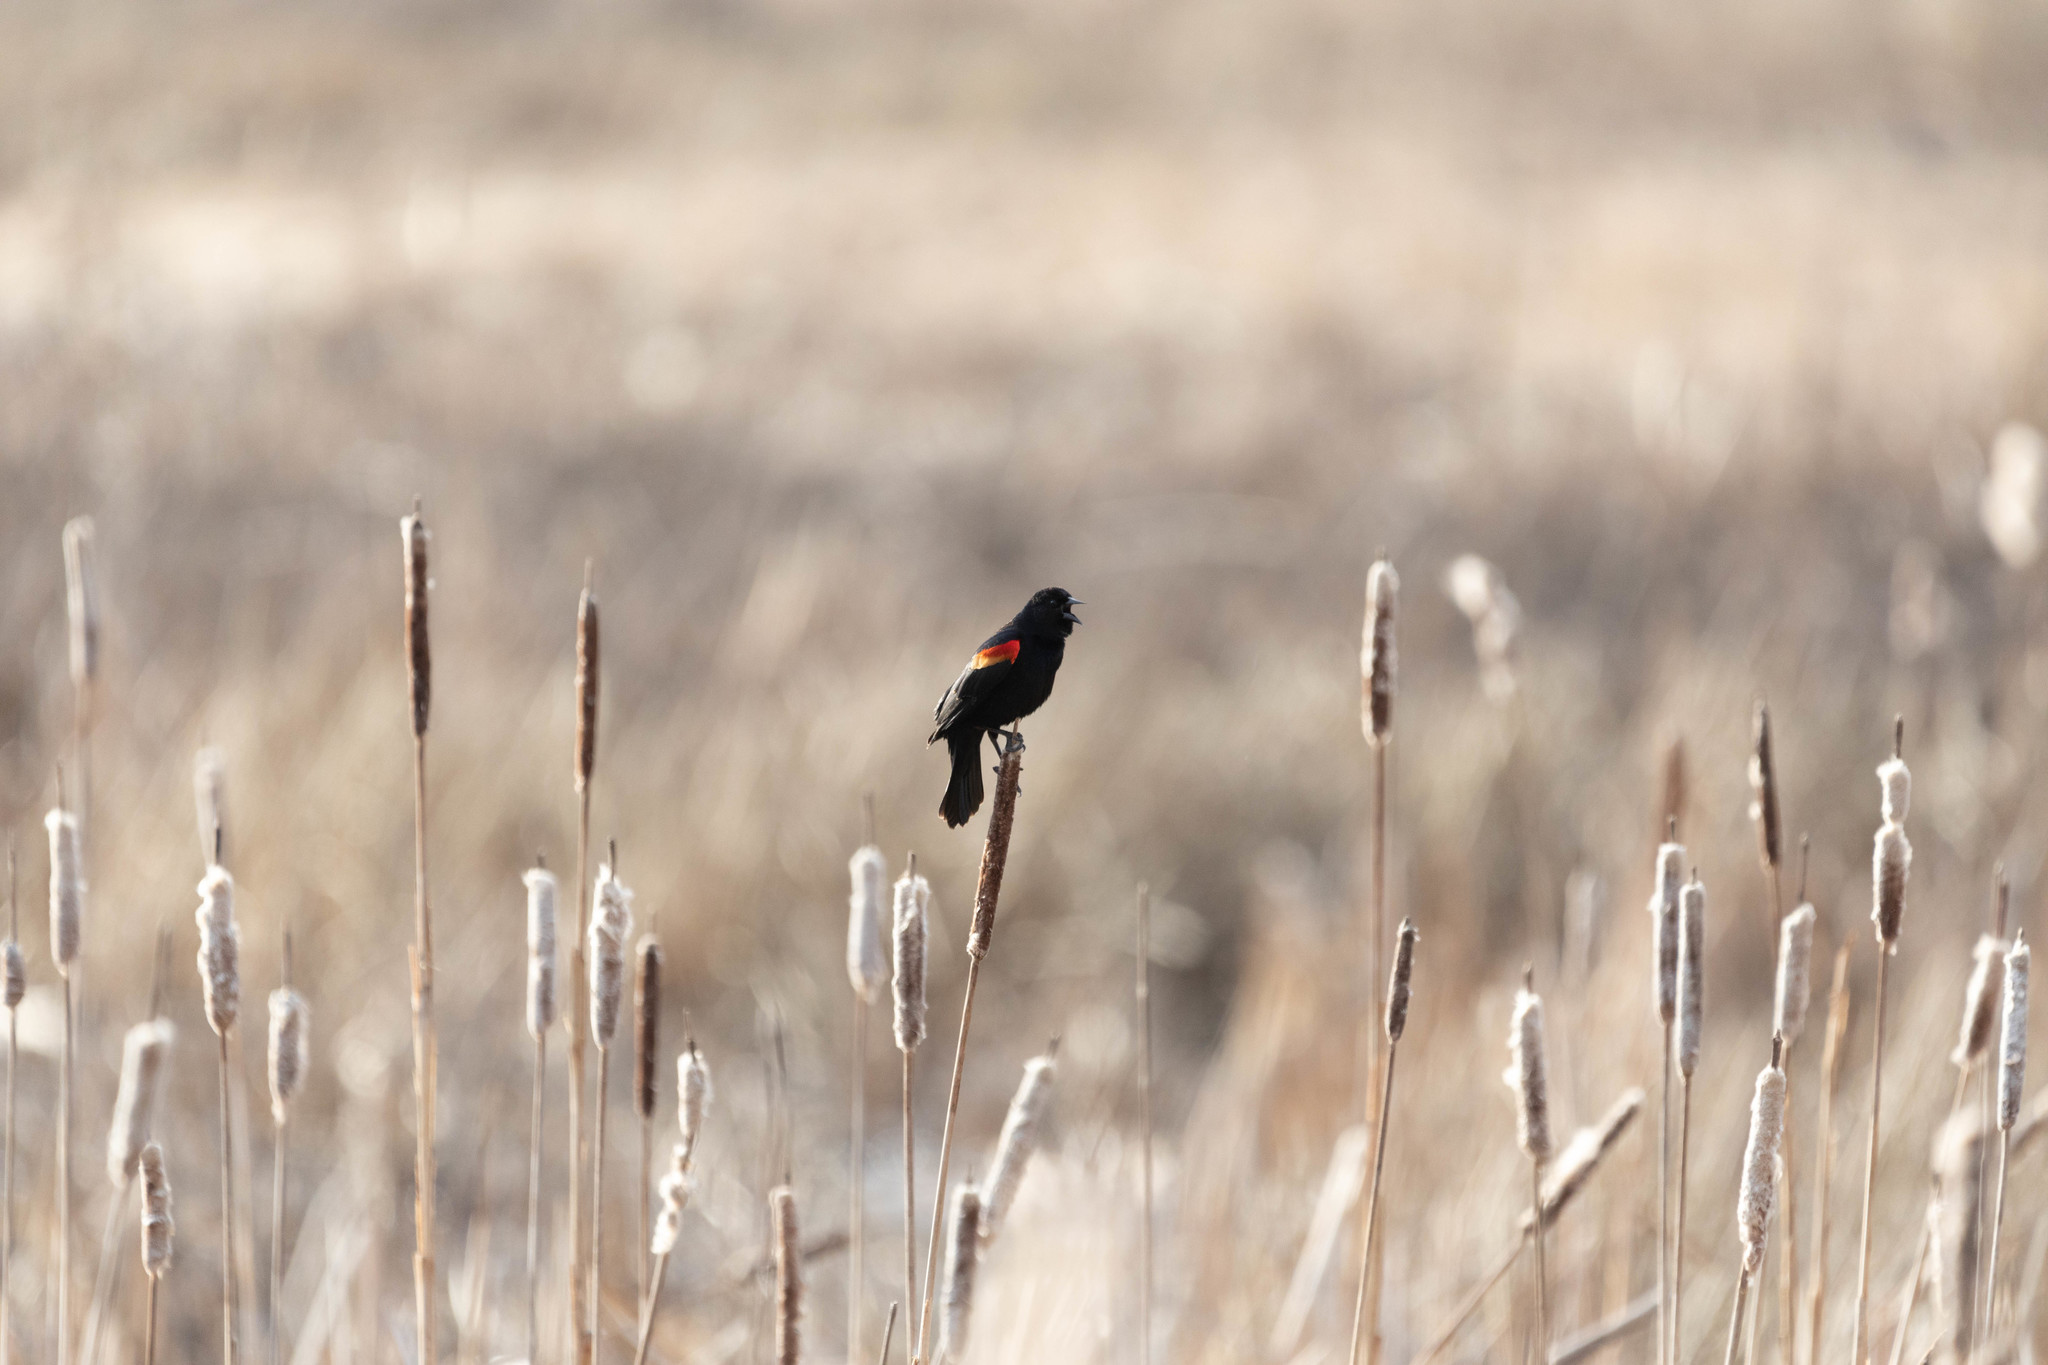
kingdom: Animalia
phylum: Chordata
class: Aves
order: Passeriformes
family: Icteridae
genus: Agelaius
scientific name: Agelaius phoeniceus
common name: Red-winged blackbird
